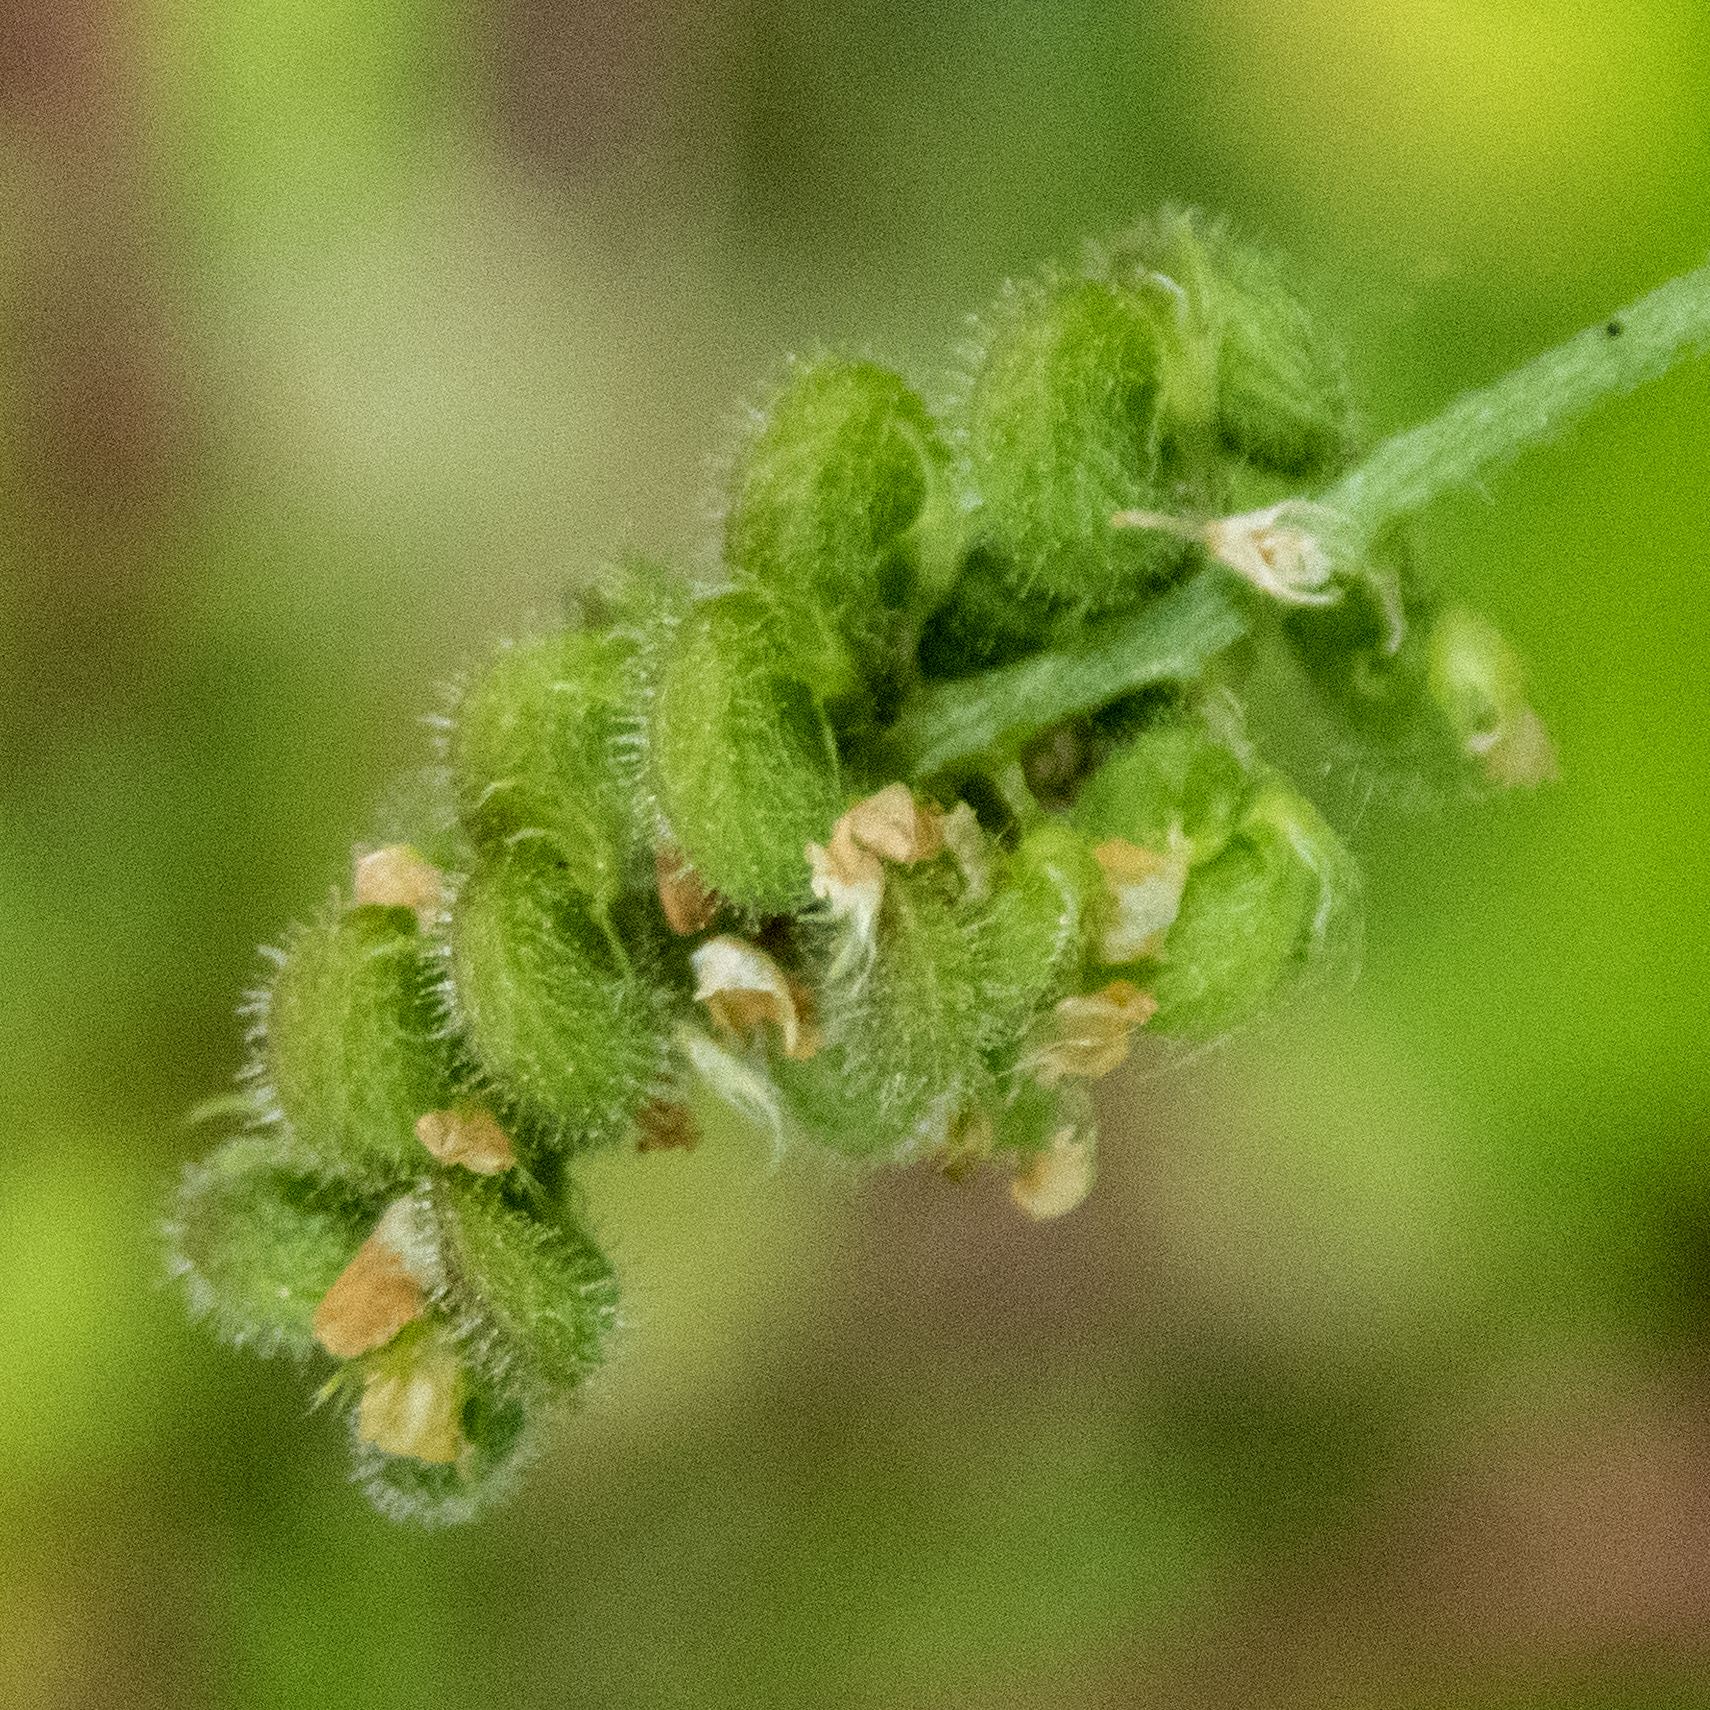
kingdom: Plantae
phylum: Tracheophyta
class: Magnoliopsida
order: Fabales
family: Fabaceae
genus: Medicago
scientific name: Medicago lupulina
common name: Black medick
